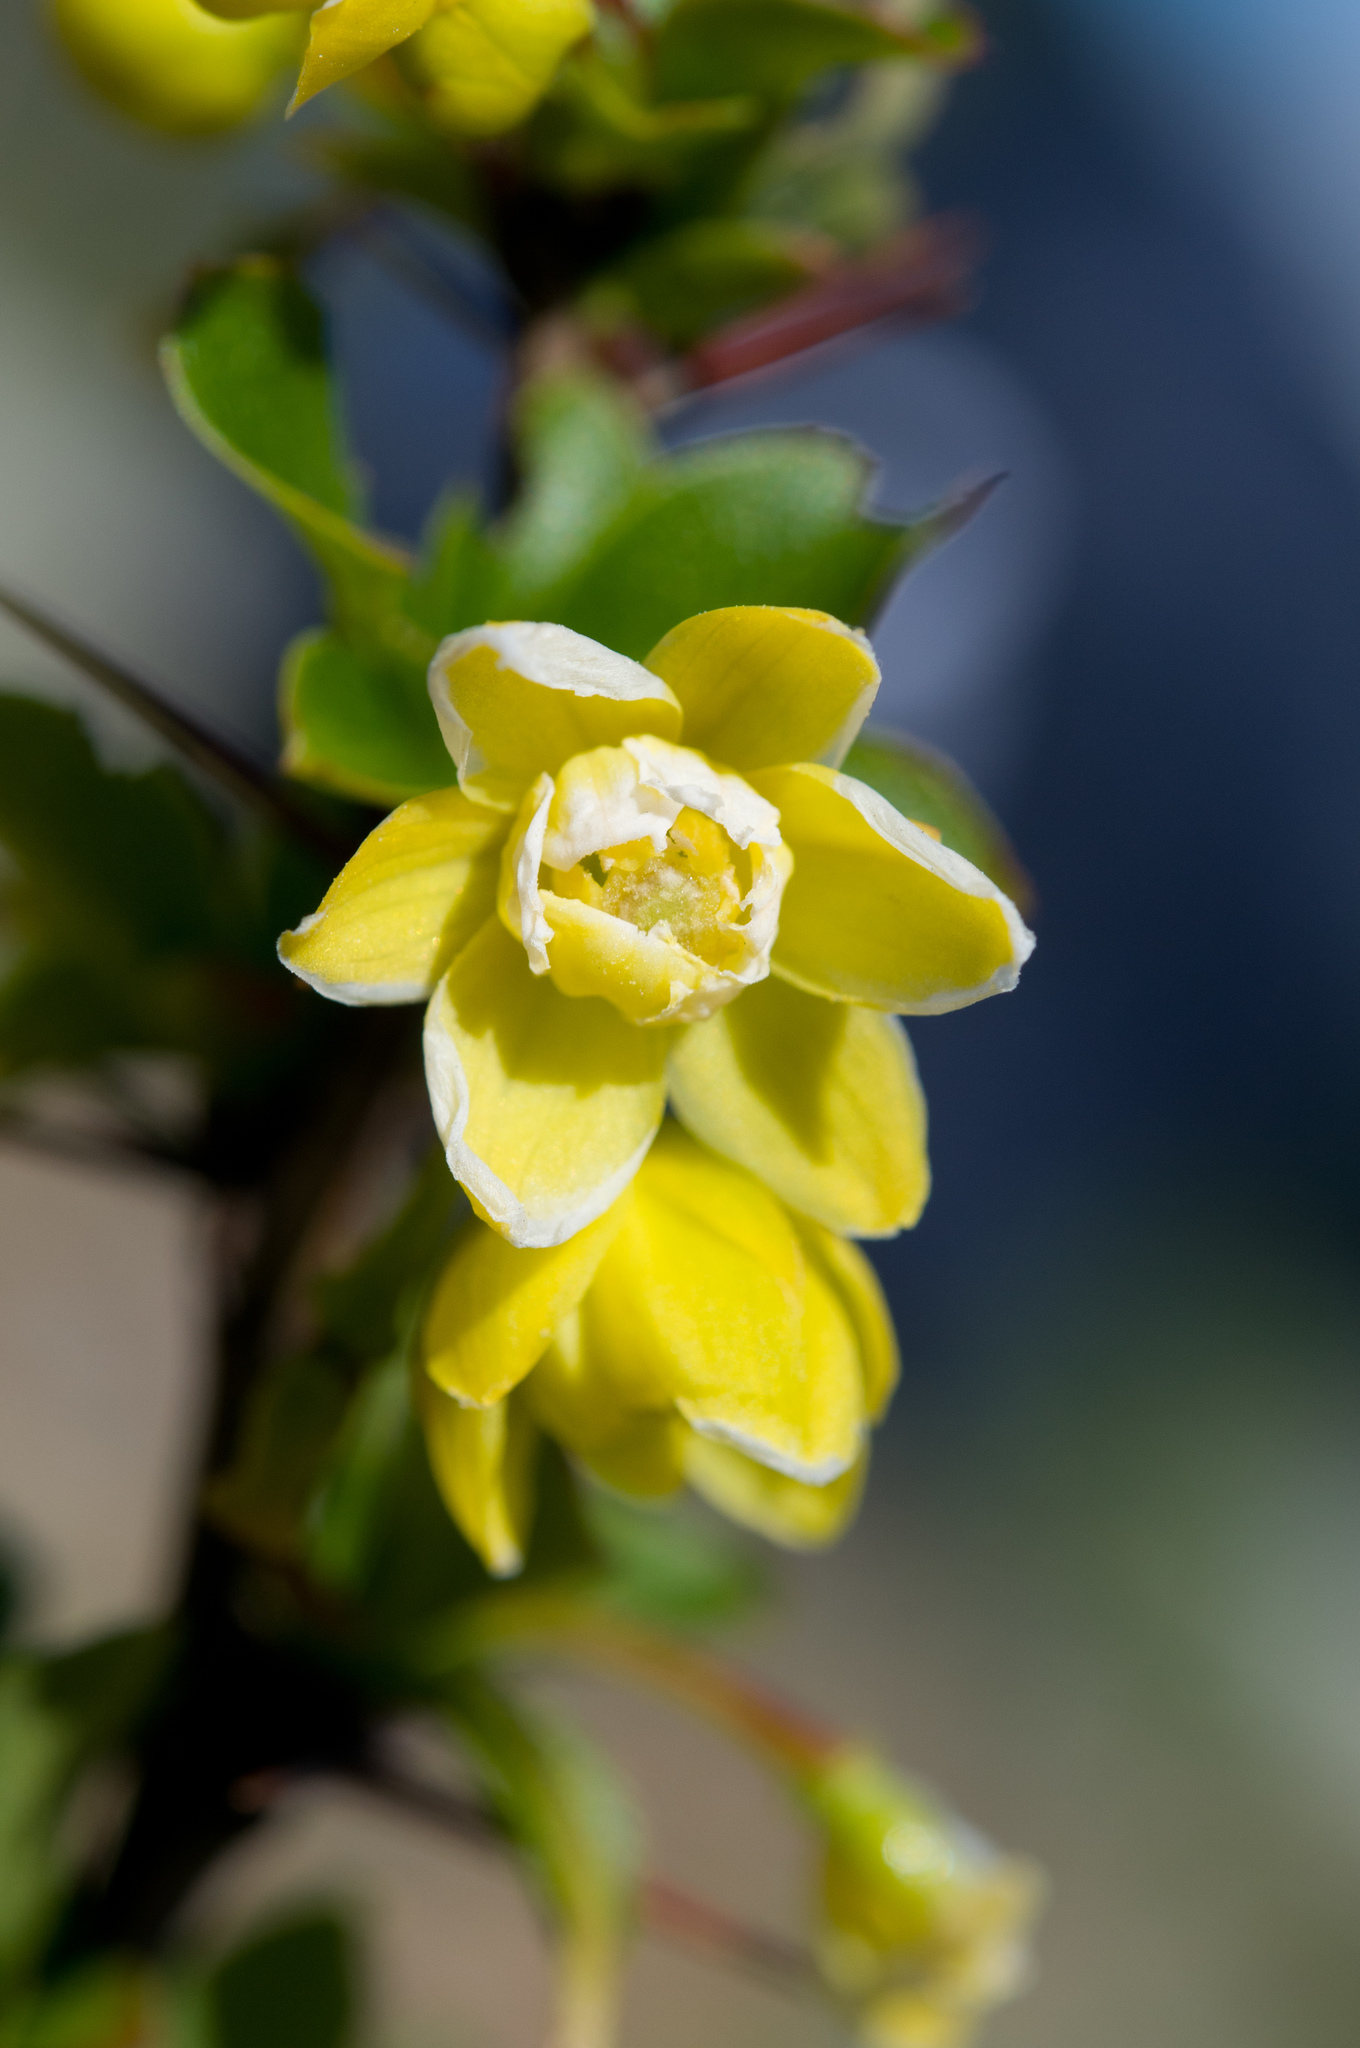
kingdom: Plantae
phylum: Tracheophyta
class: Magnoliopsida
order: Ranunculales
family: Berberidaceae
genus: Berberis
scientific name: Berberis morrisonensis
